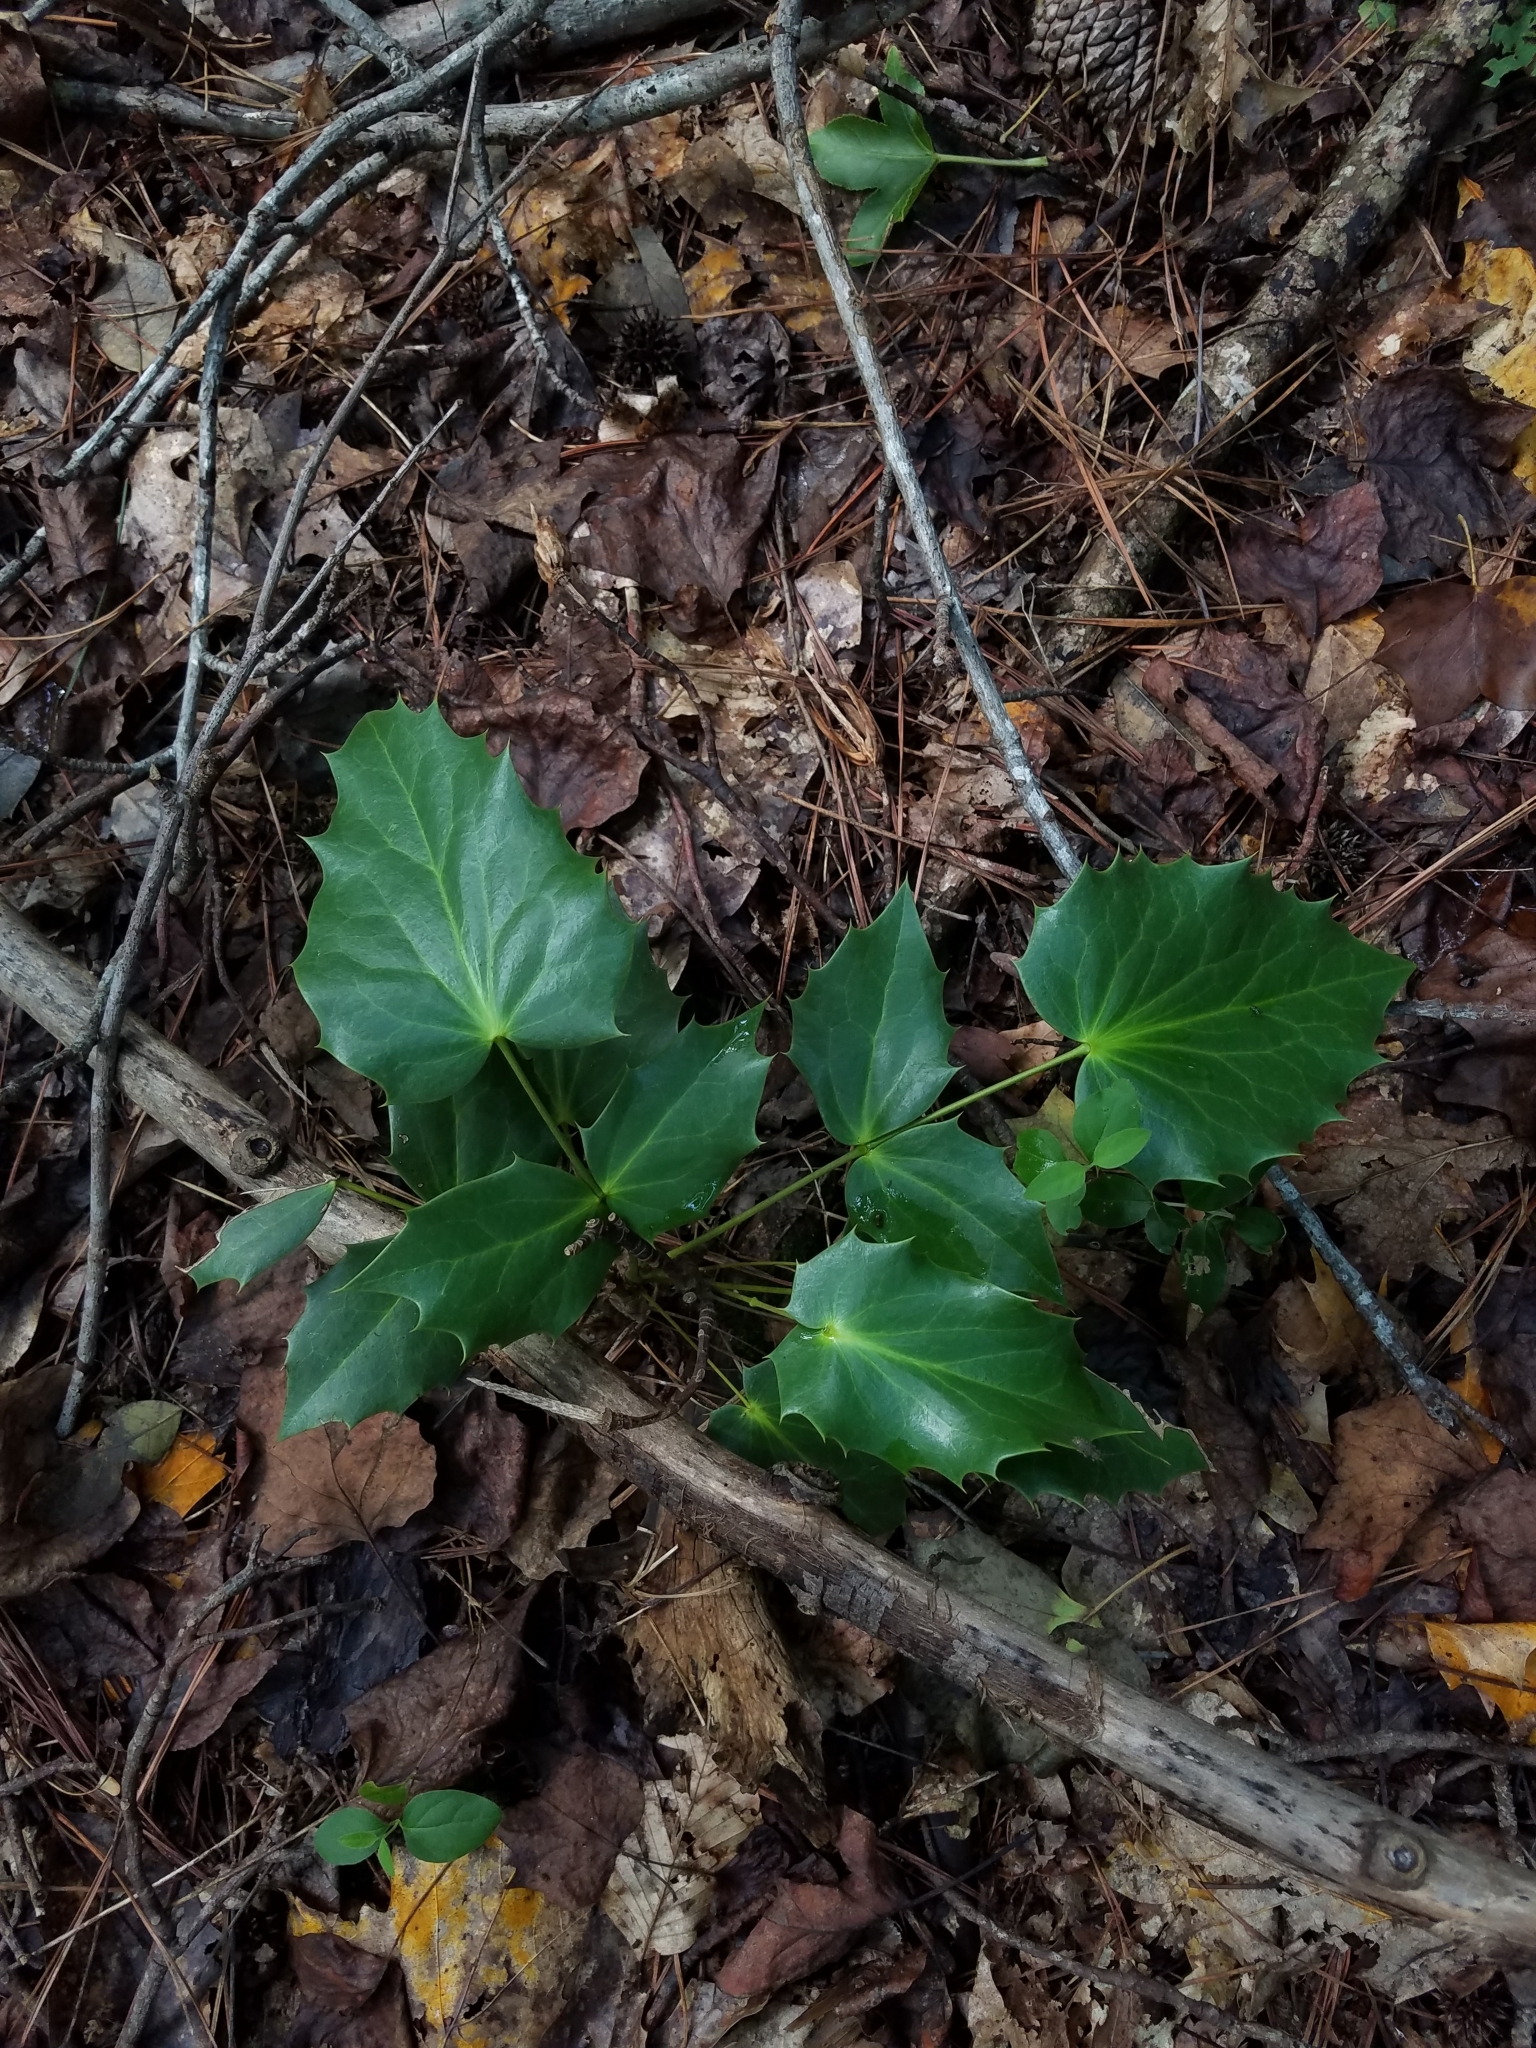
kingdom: Plantae
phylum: Tracheophyta
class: Magnoliopsida
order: Ranunculales
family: Berberidaceae
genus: Mahonia
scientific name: Mahonia bealei
